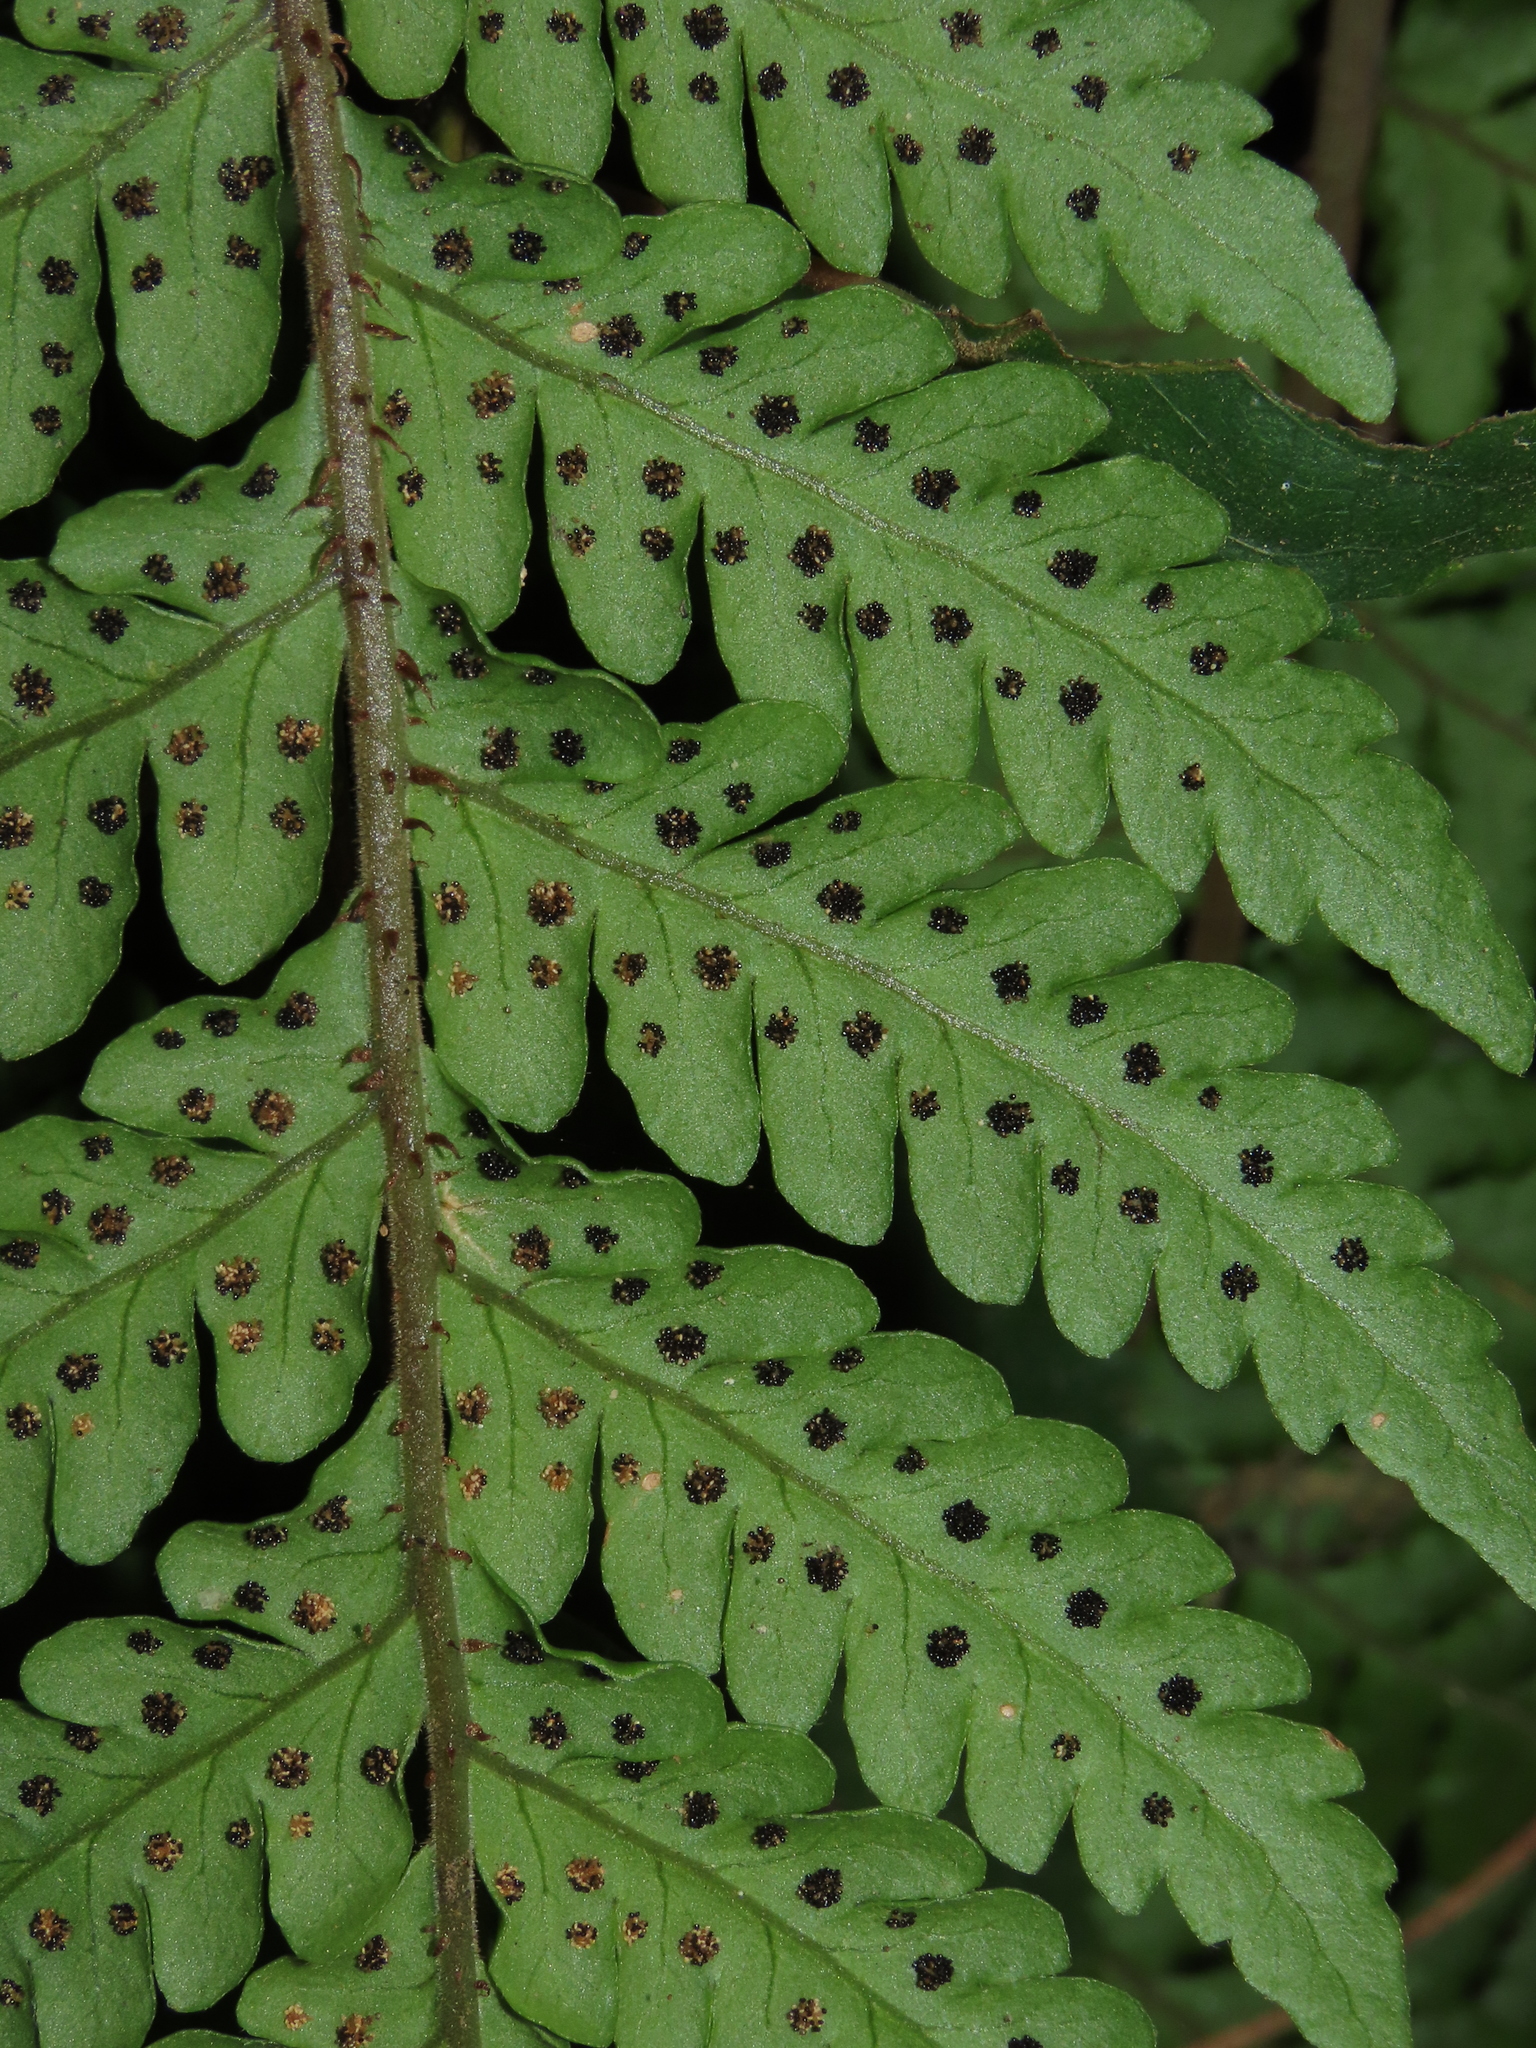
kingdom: Plantae
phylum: Tracheophyta
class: Polypodiopsida
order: Polypodiales
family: Dryopteridaceae
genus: Megalastrum
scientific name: Megalastrum spectabile
